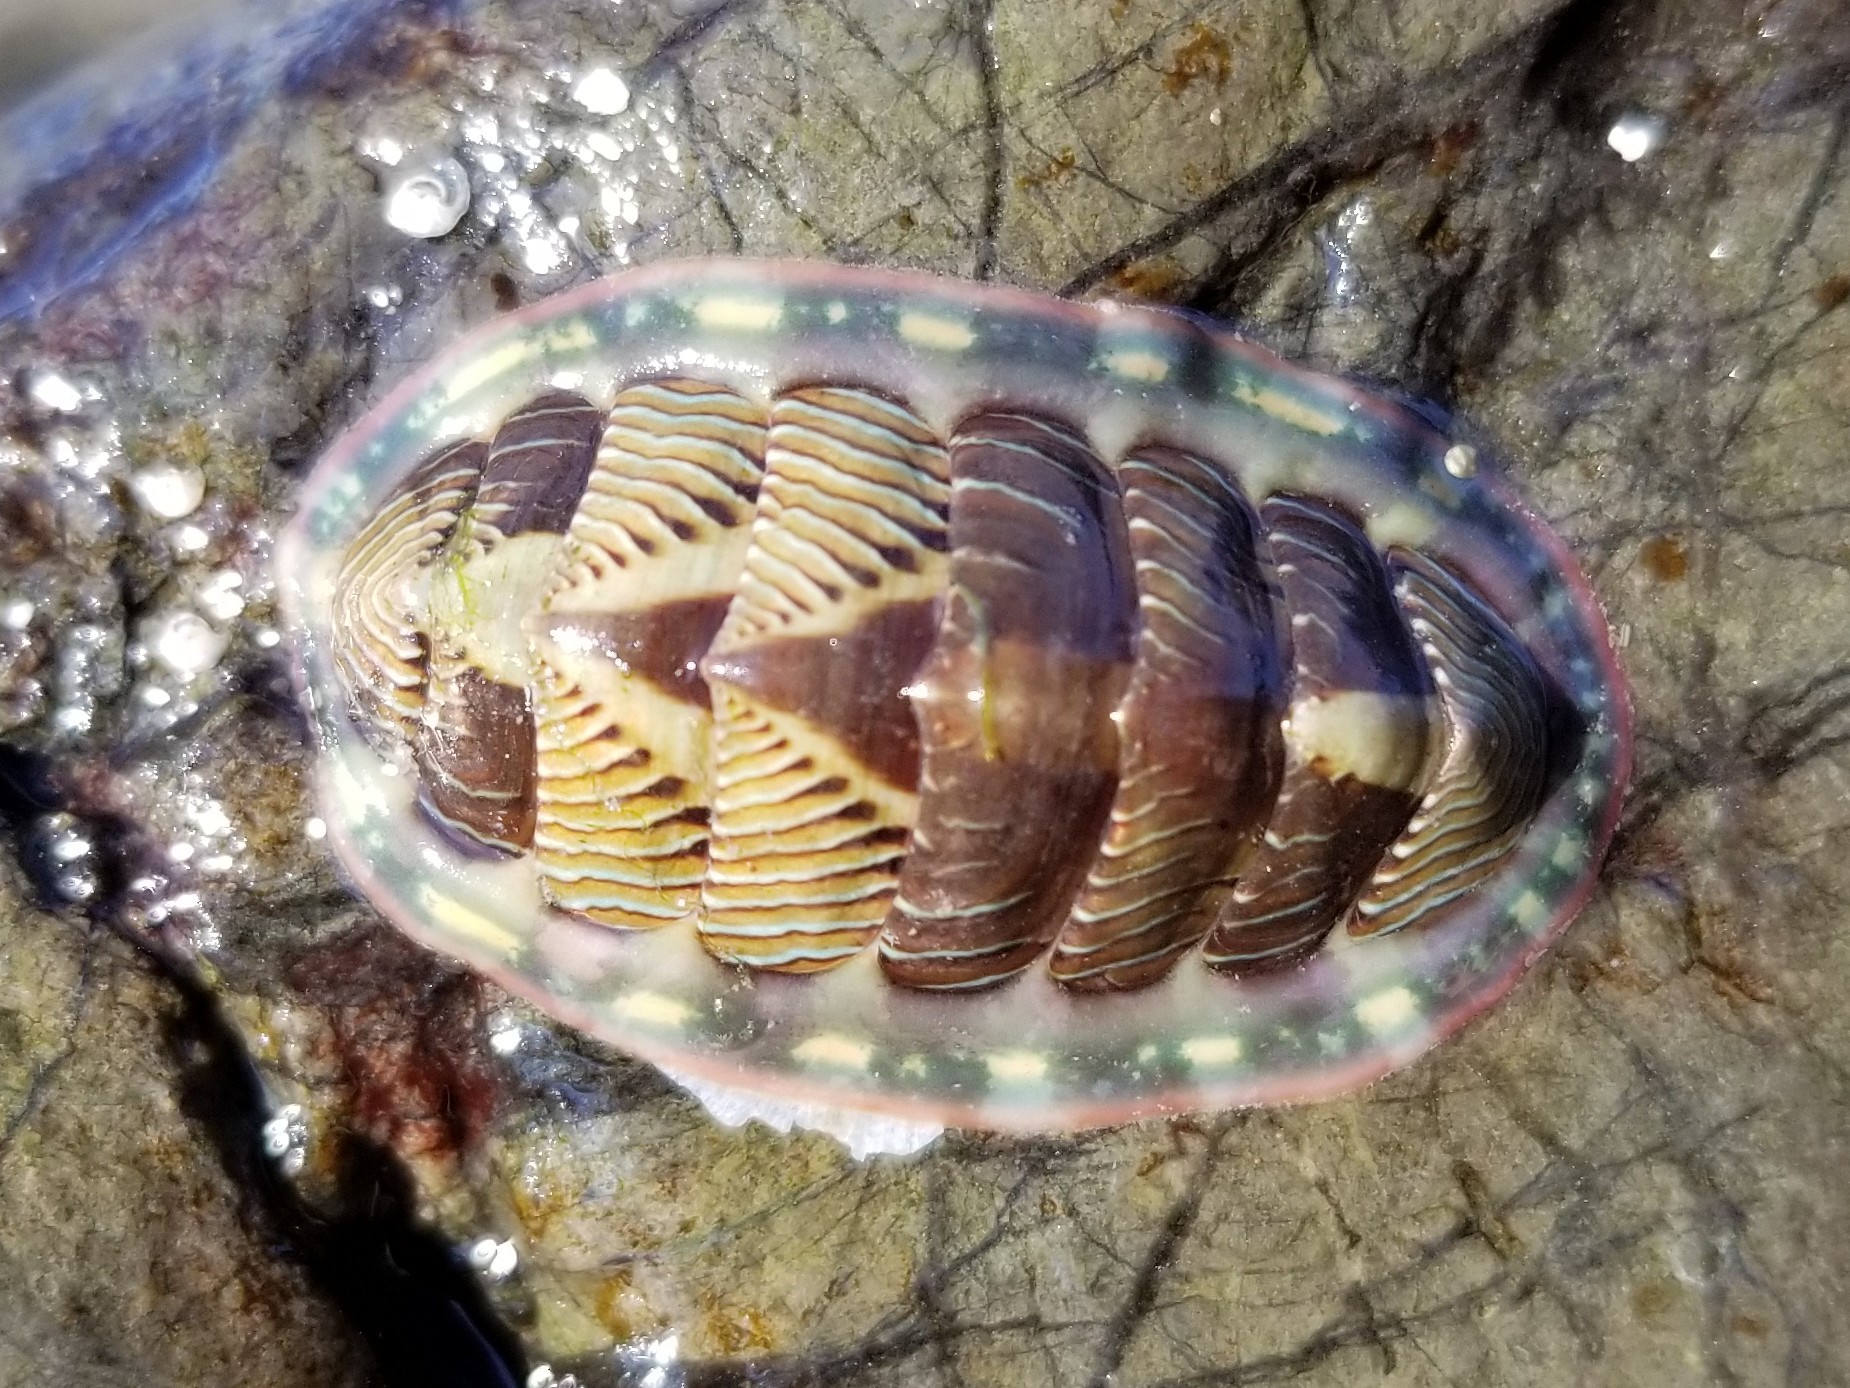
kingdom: Animalia
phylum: Mollusca
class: Polyplacophora
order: Chitonida
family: Tonicellidae
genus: Tonicella
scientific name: Tonicella lineata
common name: Lined chiton
